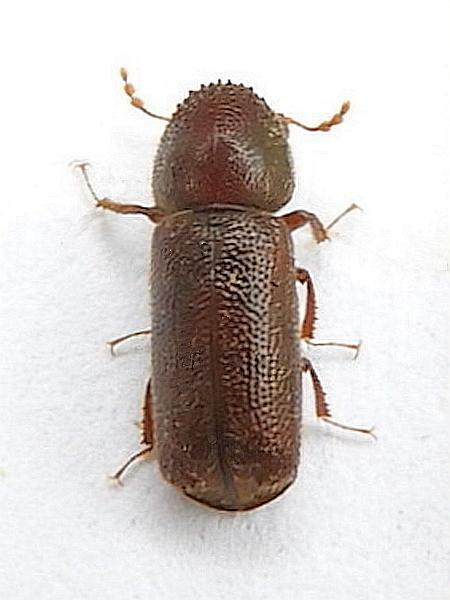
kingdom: Animalia
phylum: Arthropoda
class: Insecta
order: Coleoptera
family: Bostrichidae
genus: Prostephanus
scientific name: Prostephanus punctatus
